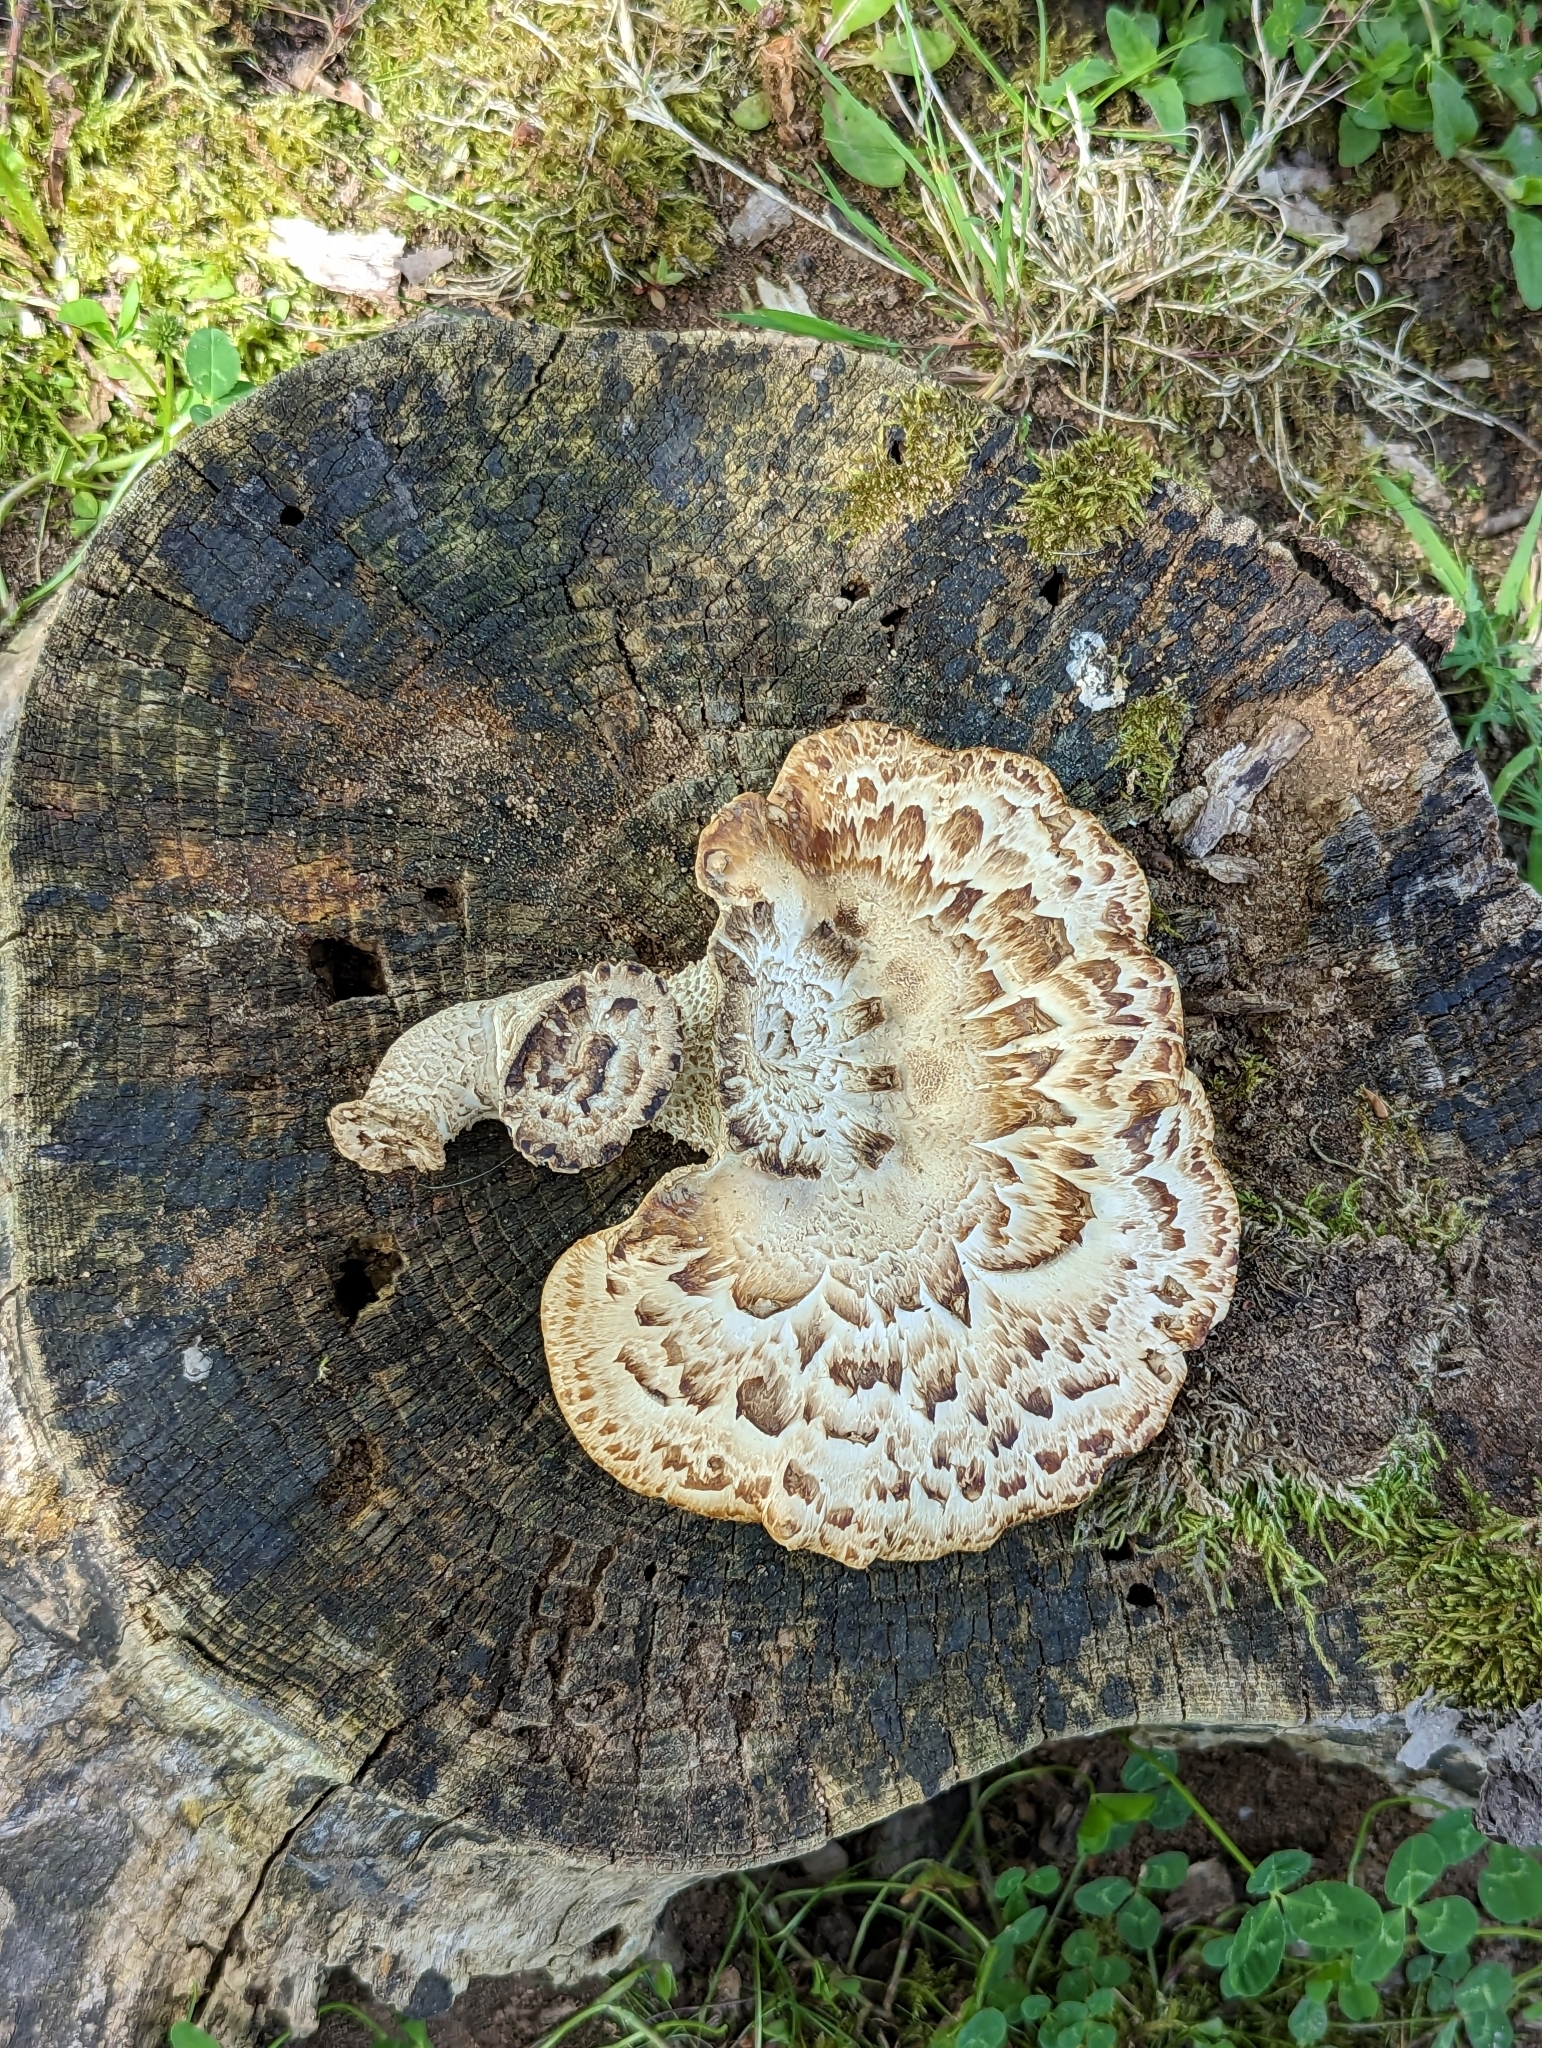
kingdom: Fungi
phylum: Basidiomycota
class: Agaricomycetes
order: Polyporales
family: Polyporaceae
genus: Cerioporus
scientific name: Cerioporus squamosus
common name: Dryad's saddle
